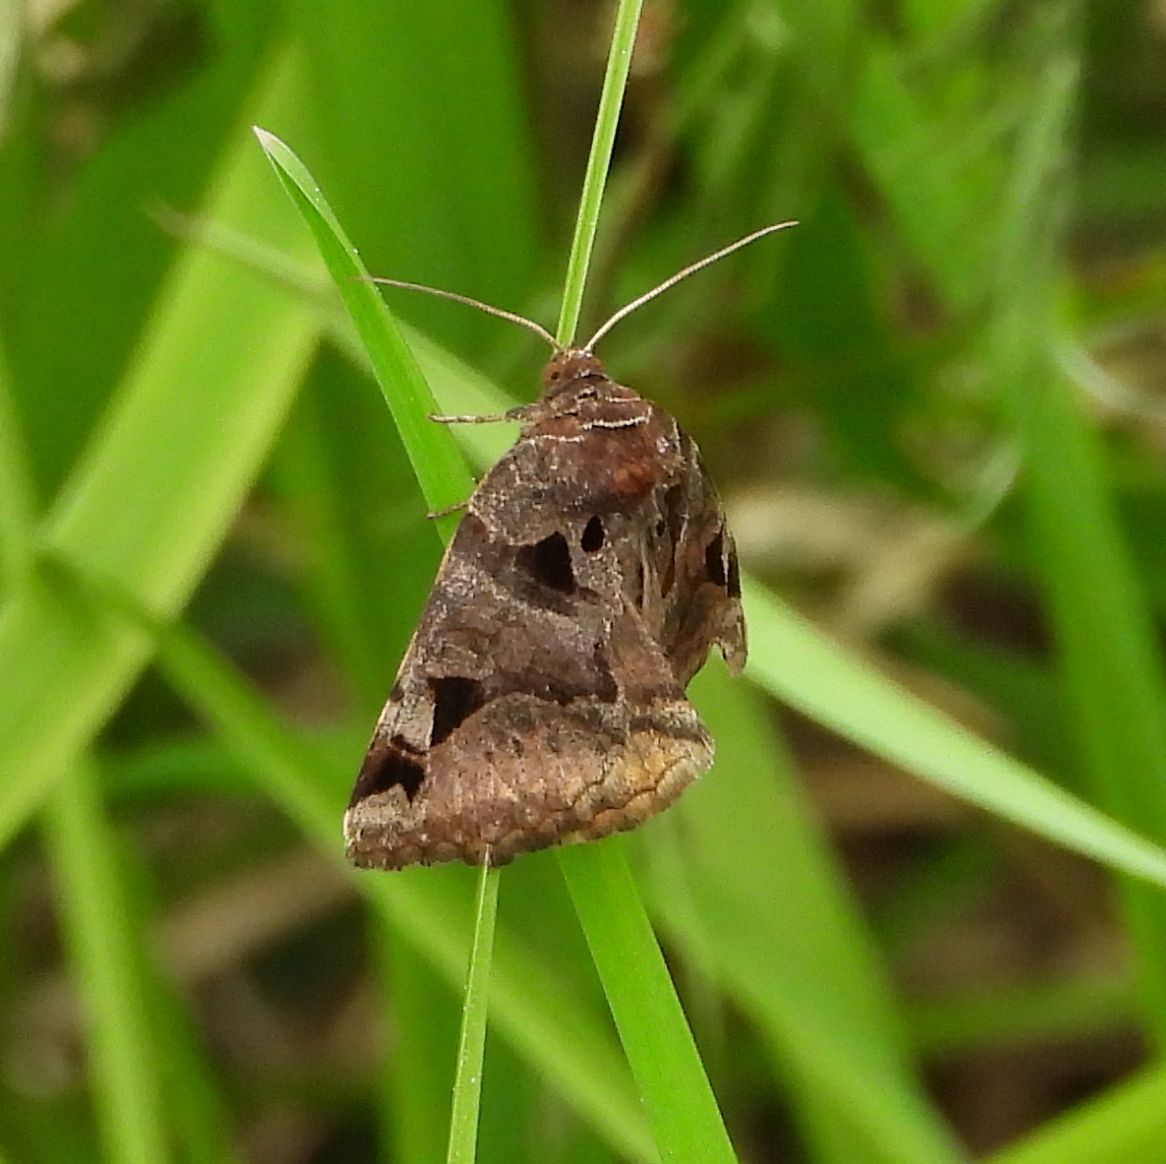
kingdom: Animalia
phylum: Arthropoda
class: Insecta
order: Lepidoptera
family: Erebidae
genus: Euclidia
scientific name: Euclidia cuspidea
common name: Toothed somberwing
